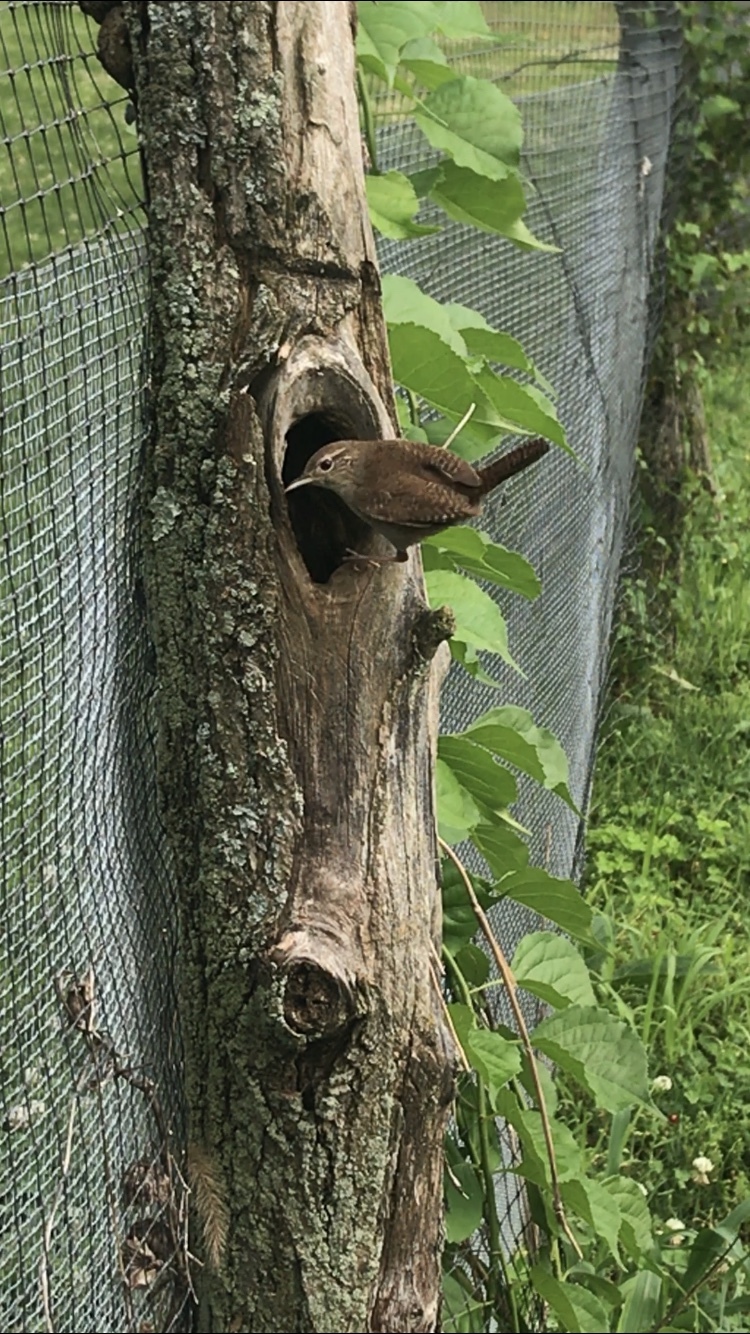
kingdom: Animalia
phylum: Chordata
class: Aves
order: Passeriformes
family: Troglodytidae
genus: Troglodytes
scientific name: Troglodytes aedon
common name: House wren
